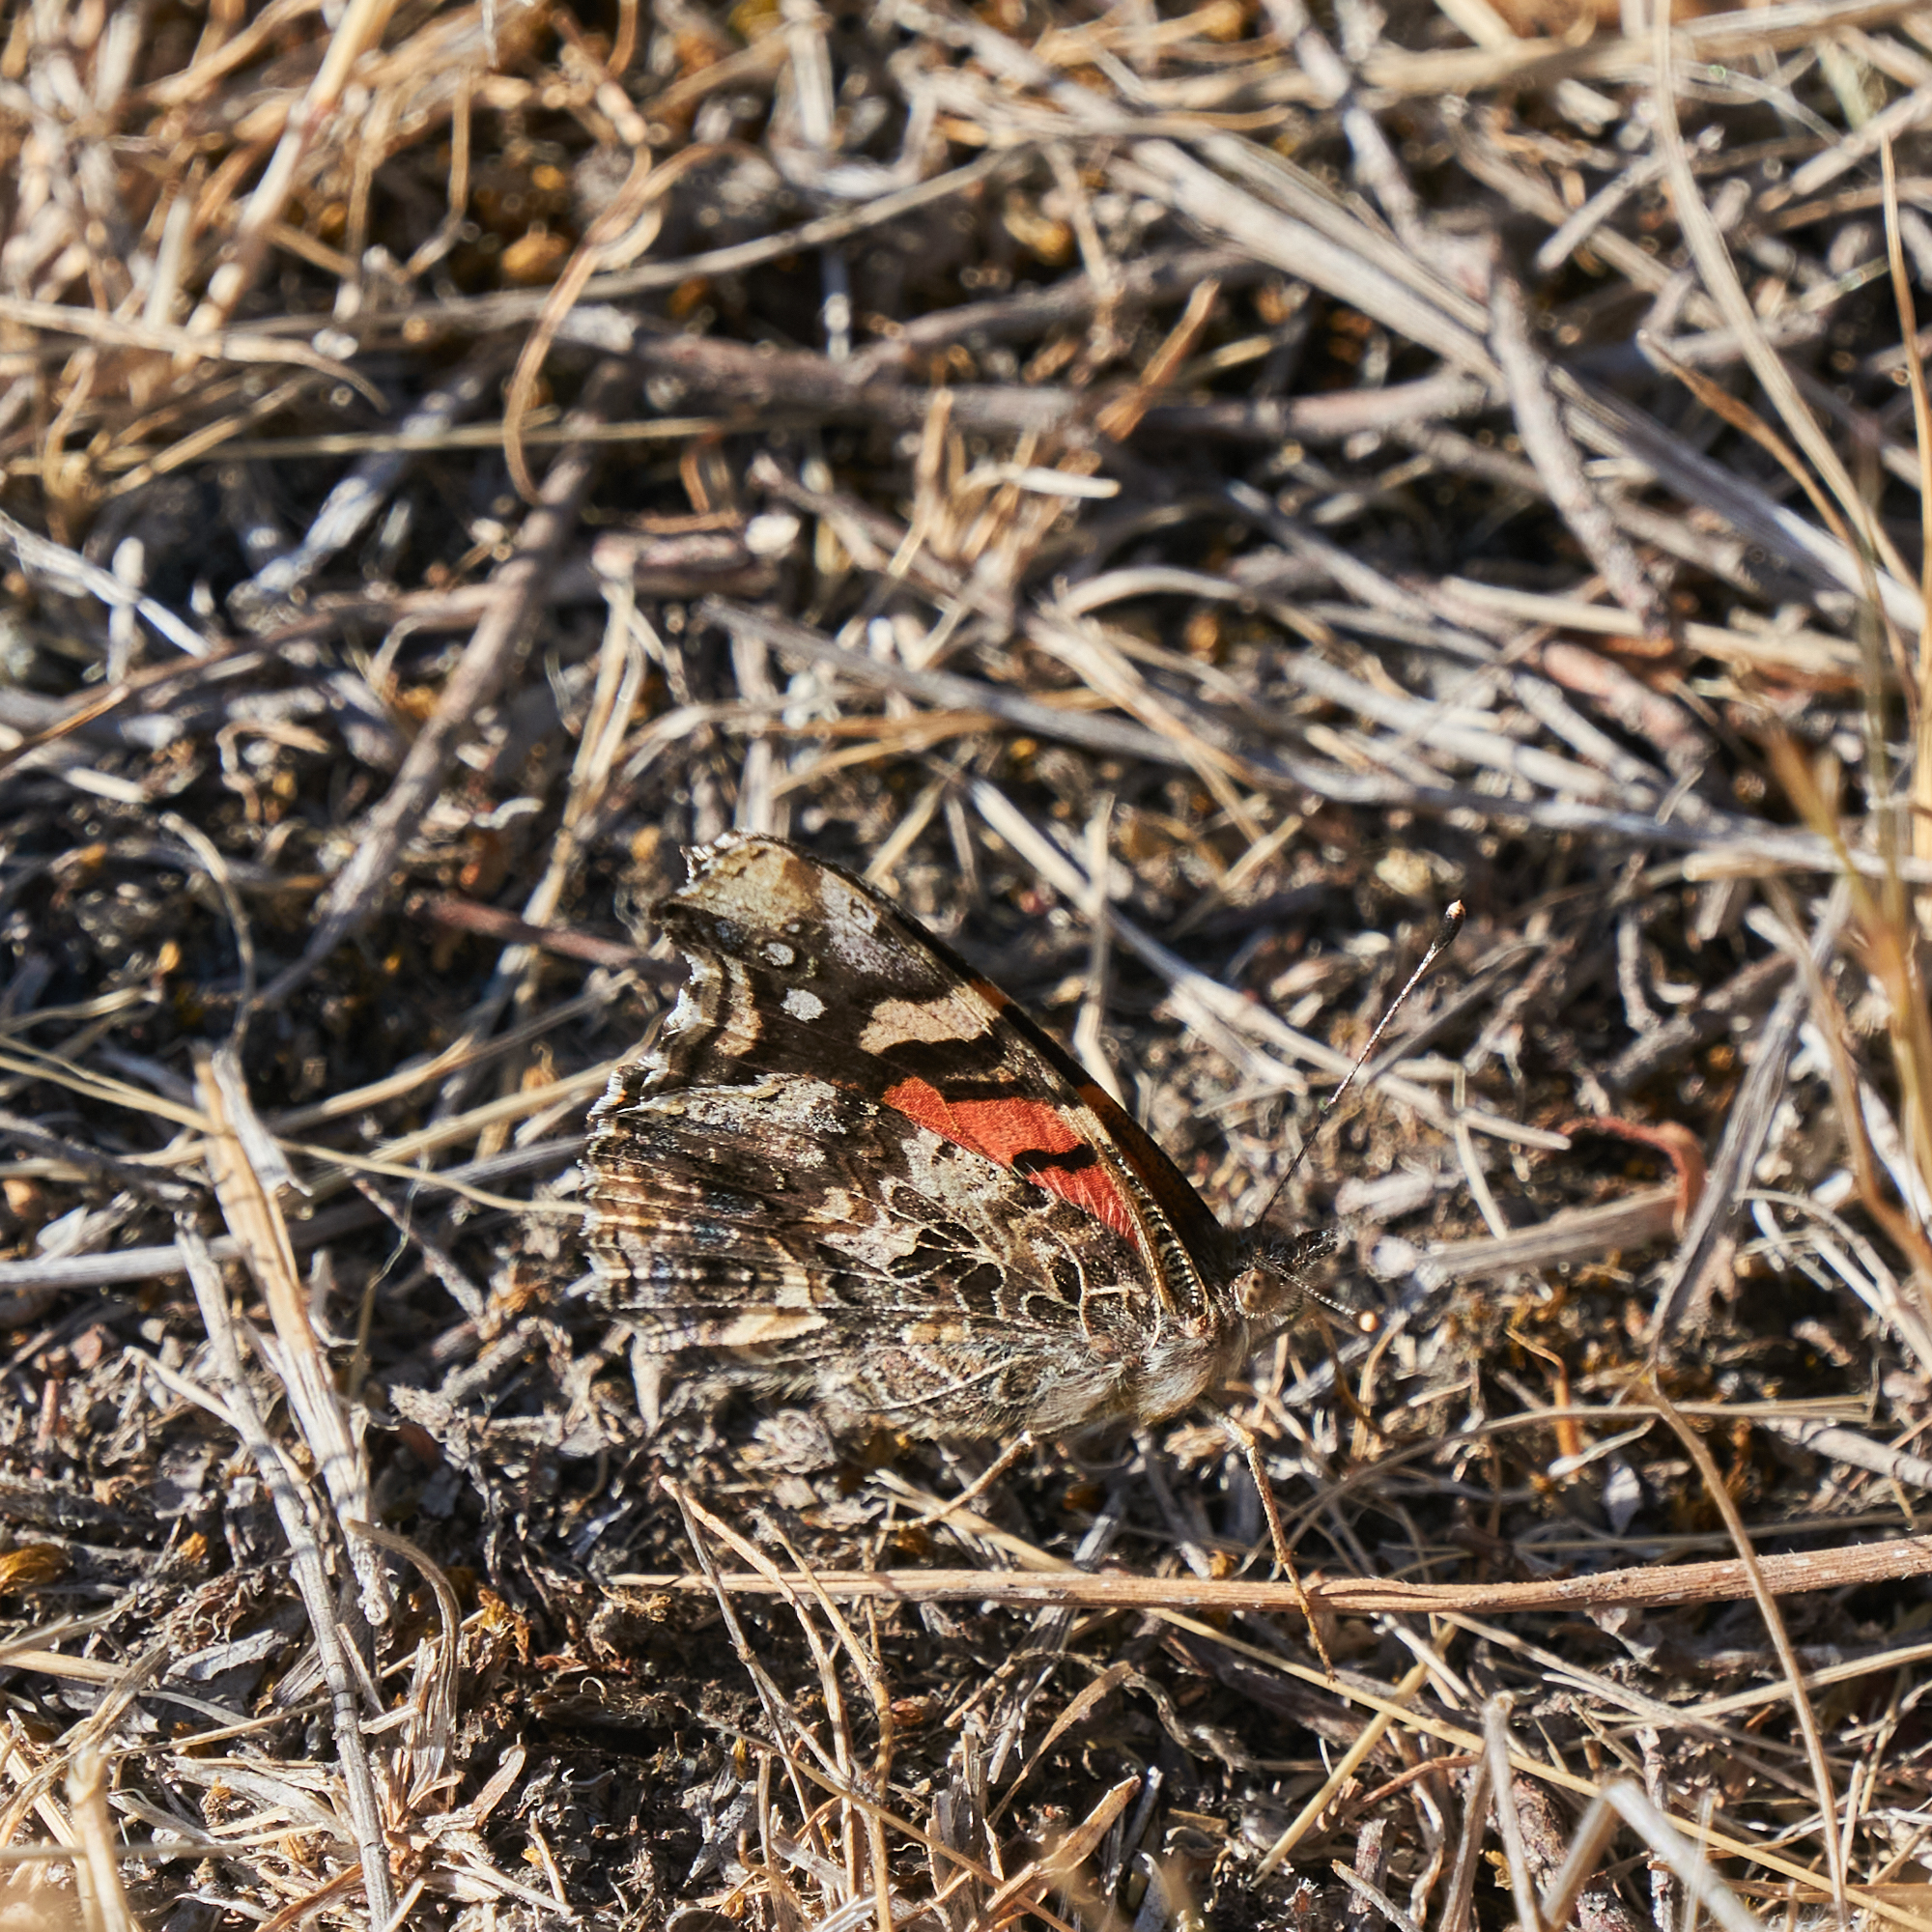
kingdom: Animalia
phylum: Arthropoda
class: Insecta
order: Lepidoptera
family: Nymphalidae
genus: Vanessa
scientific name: Vanessa carye
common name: Subtropical lady
